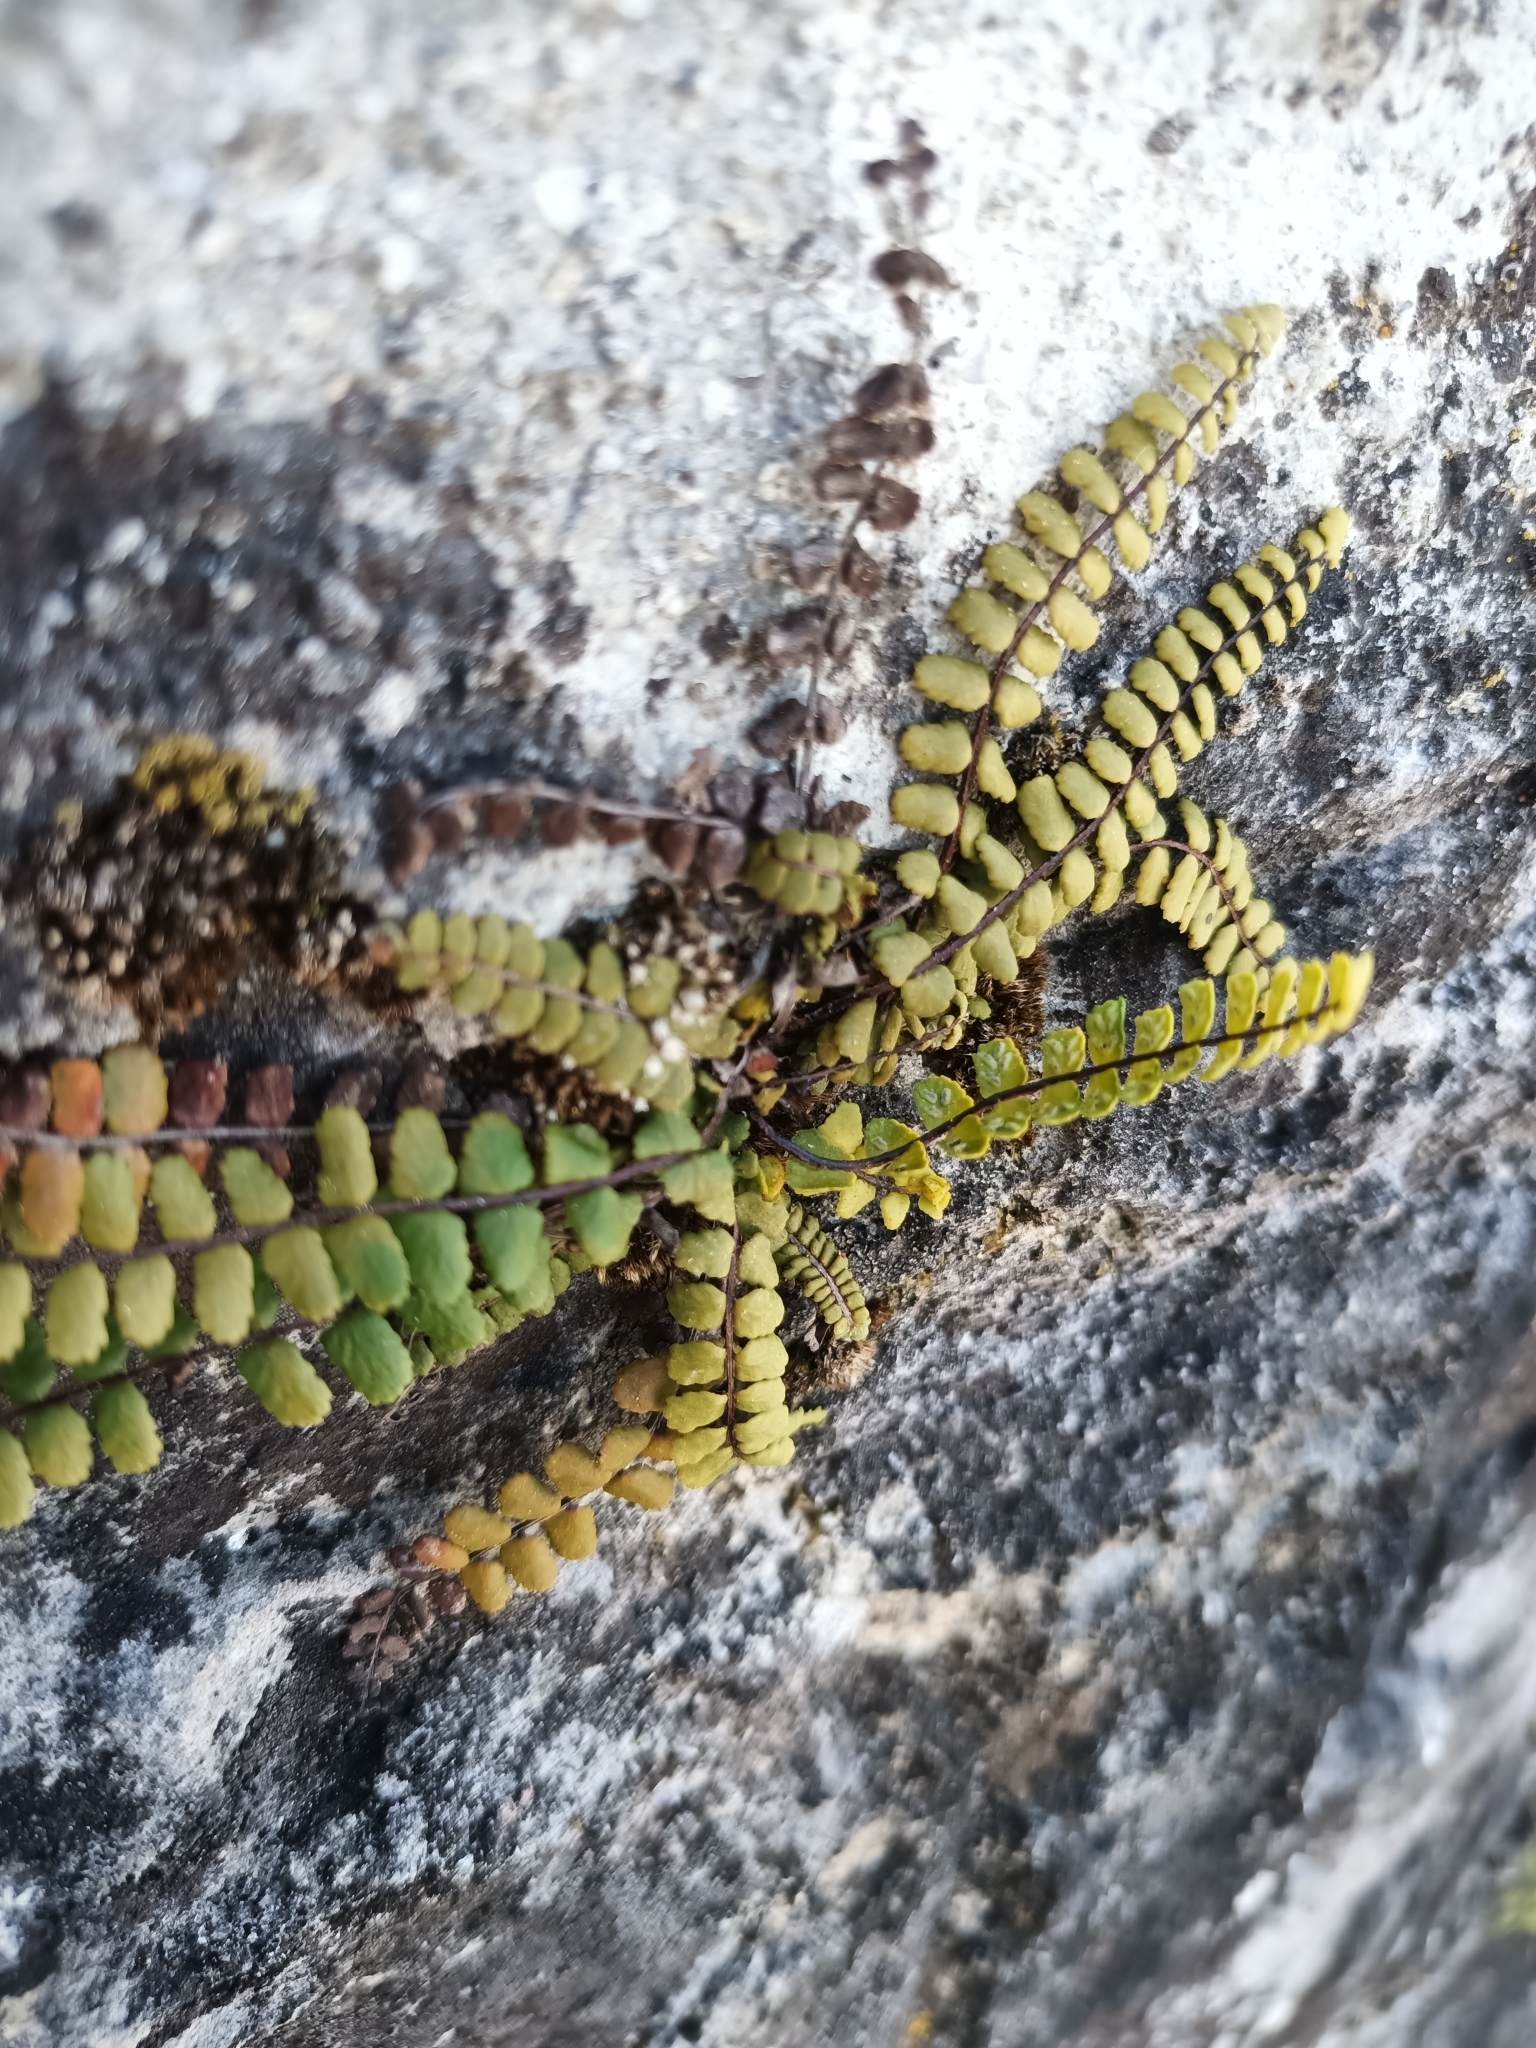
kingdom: Plantae
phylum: Tracheophyta
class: Polypodiopsida
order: Polypodiales
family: Aspleniaceae
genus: Asplenium
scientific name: Asplenium trichomanes
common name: Maidenhair spleenwort
